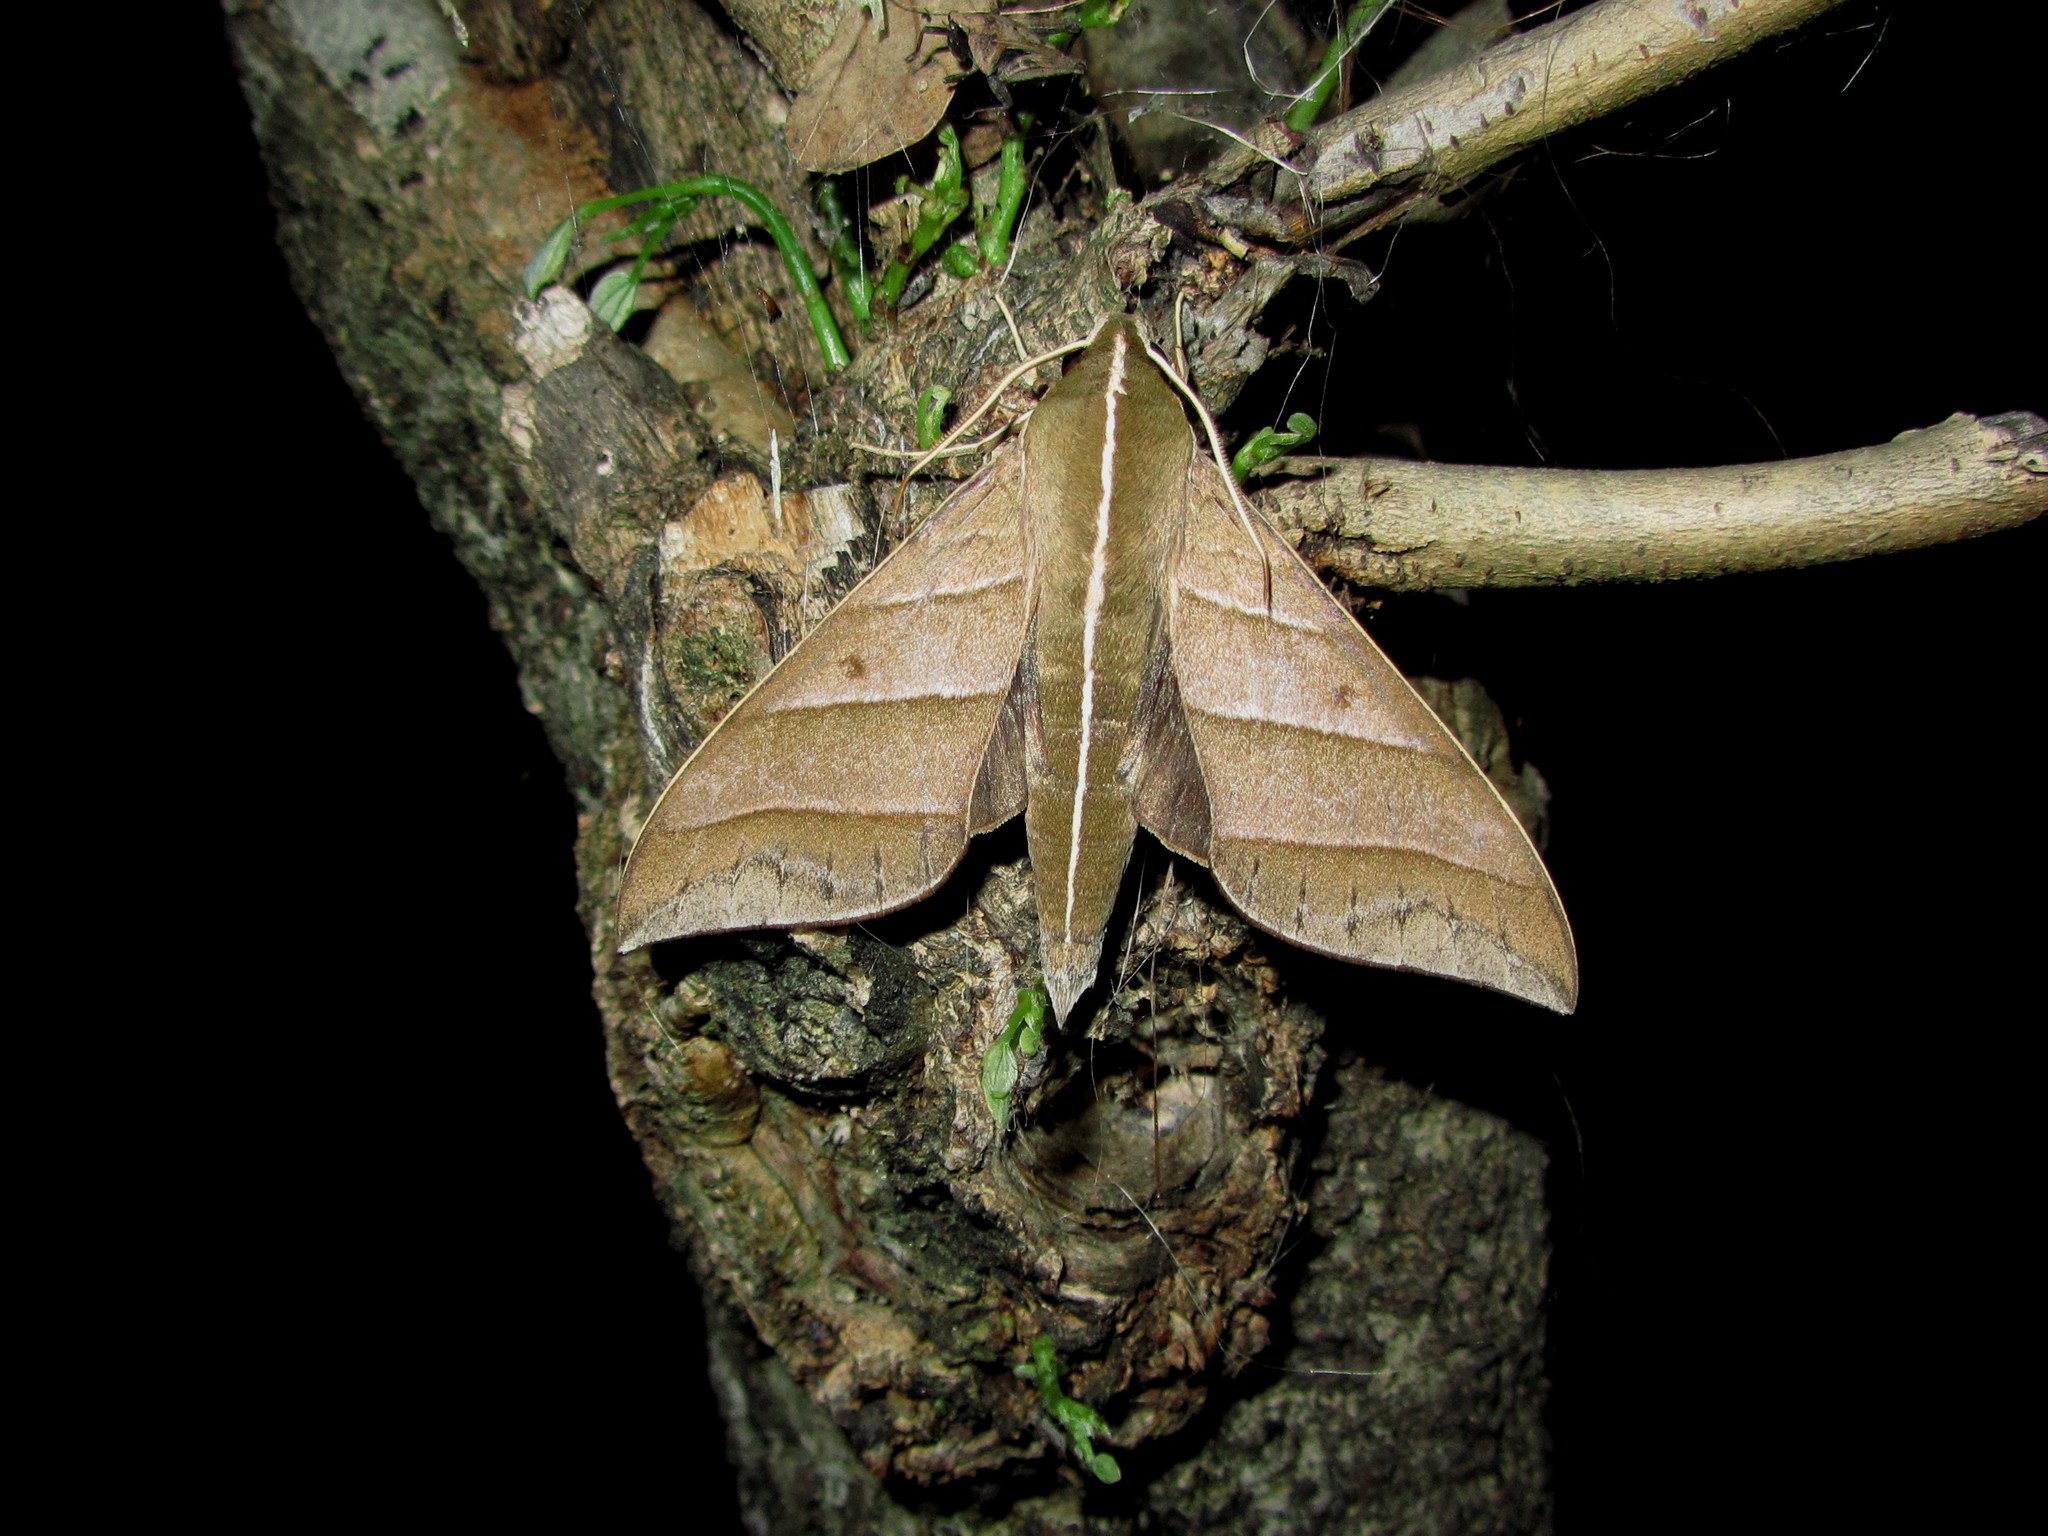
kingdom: Animalia
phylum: Arthropoda
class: Insecta
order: Lepidoptera
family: Sphingidae
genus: Elibia
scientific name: Elibia dolichoides
